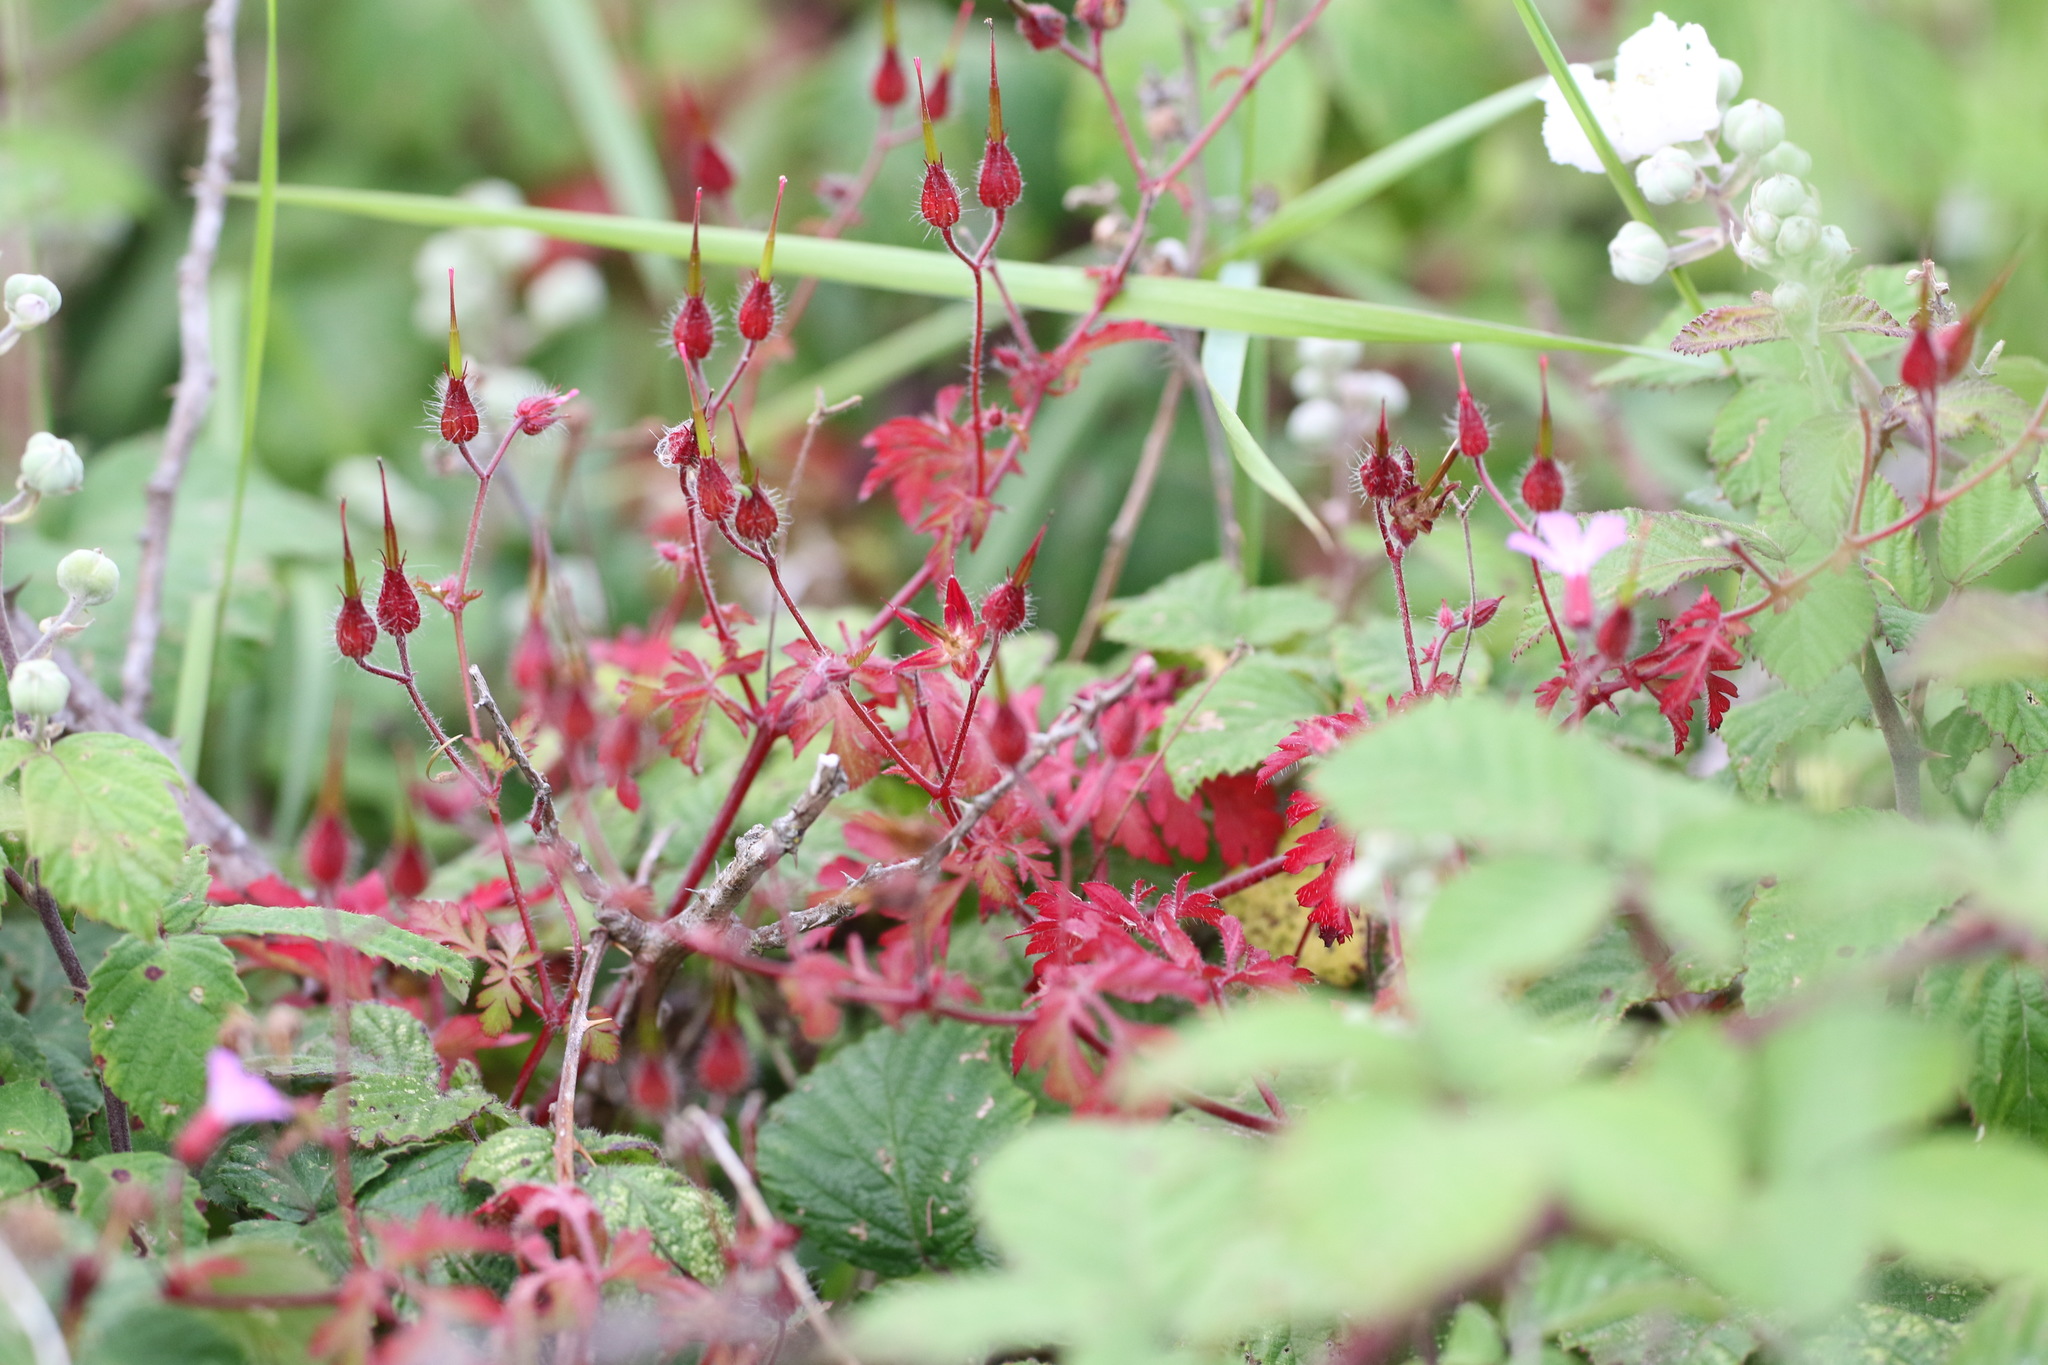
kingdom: Plantae
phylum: Tracheophyta
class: Magnoliopsida
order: Geraniales
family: Geraniaceae
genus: Geranium
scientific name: Geranium robertianum
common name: Herb-robert
